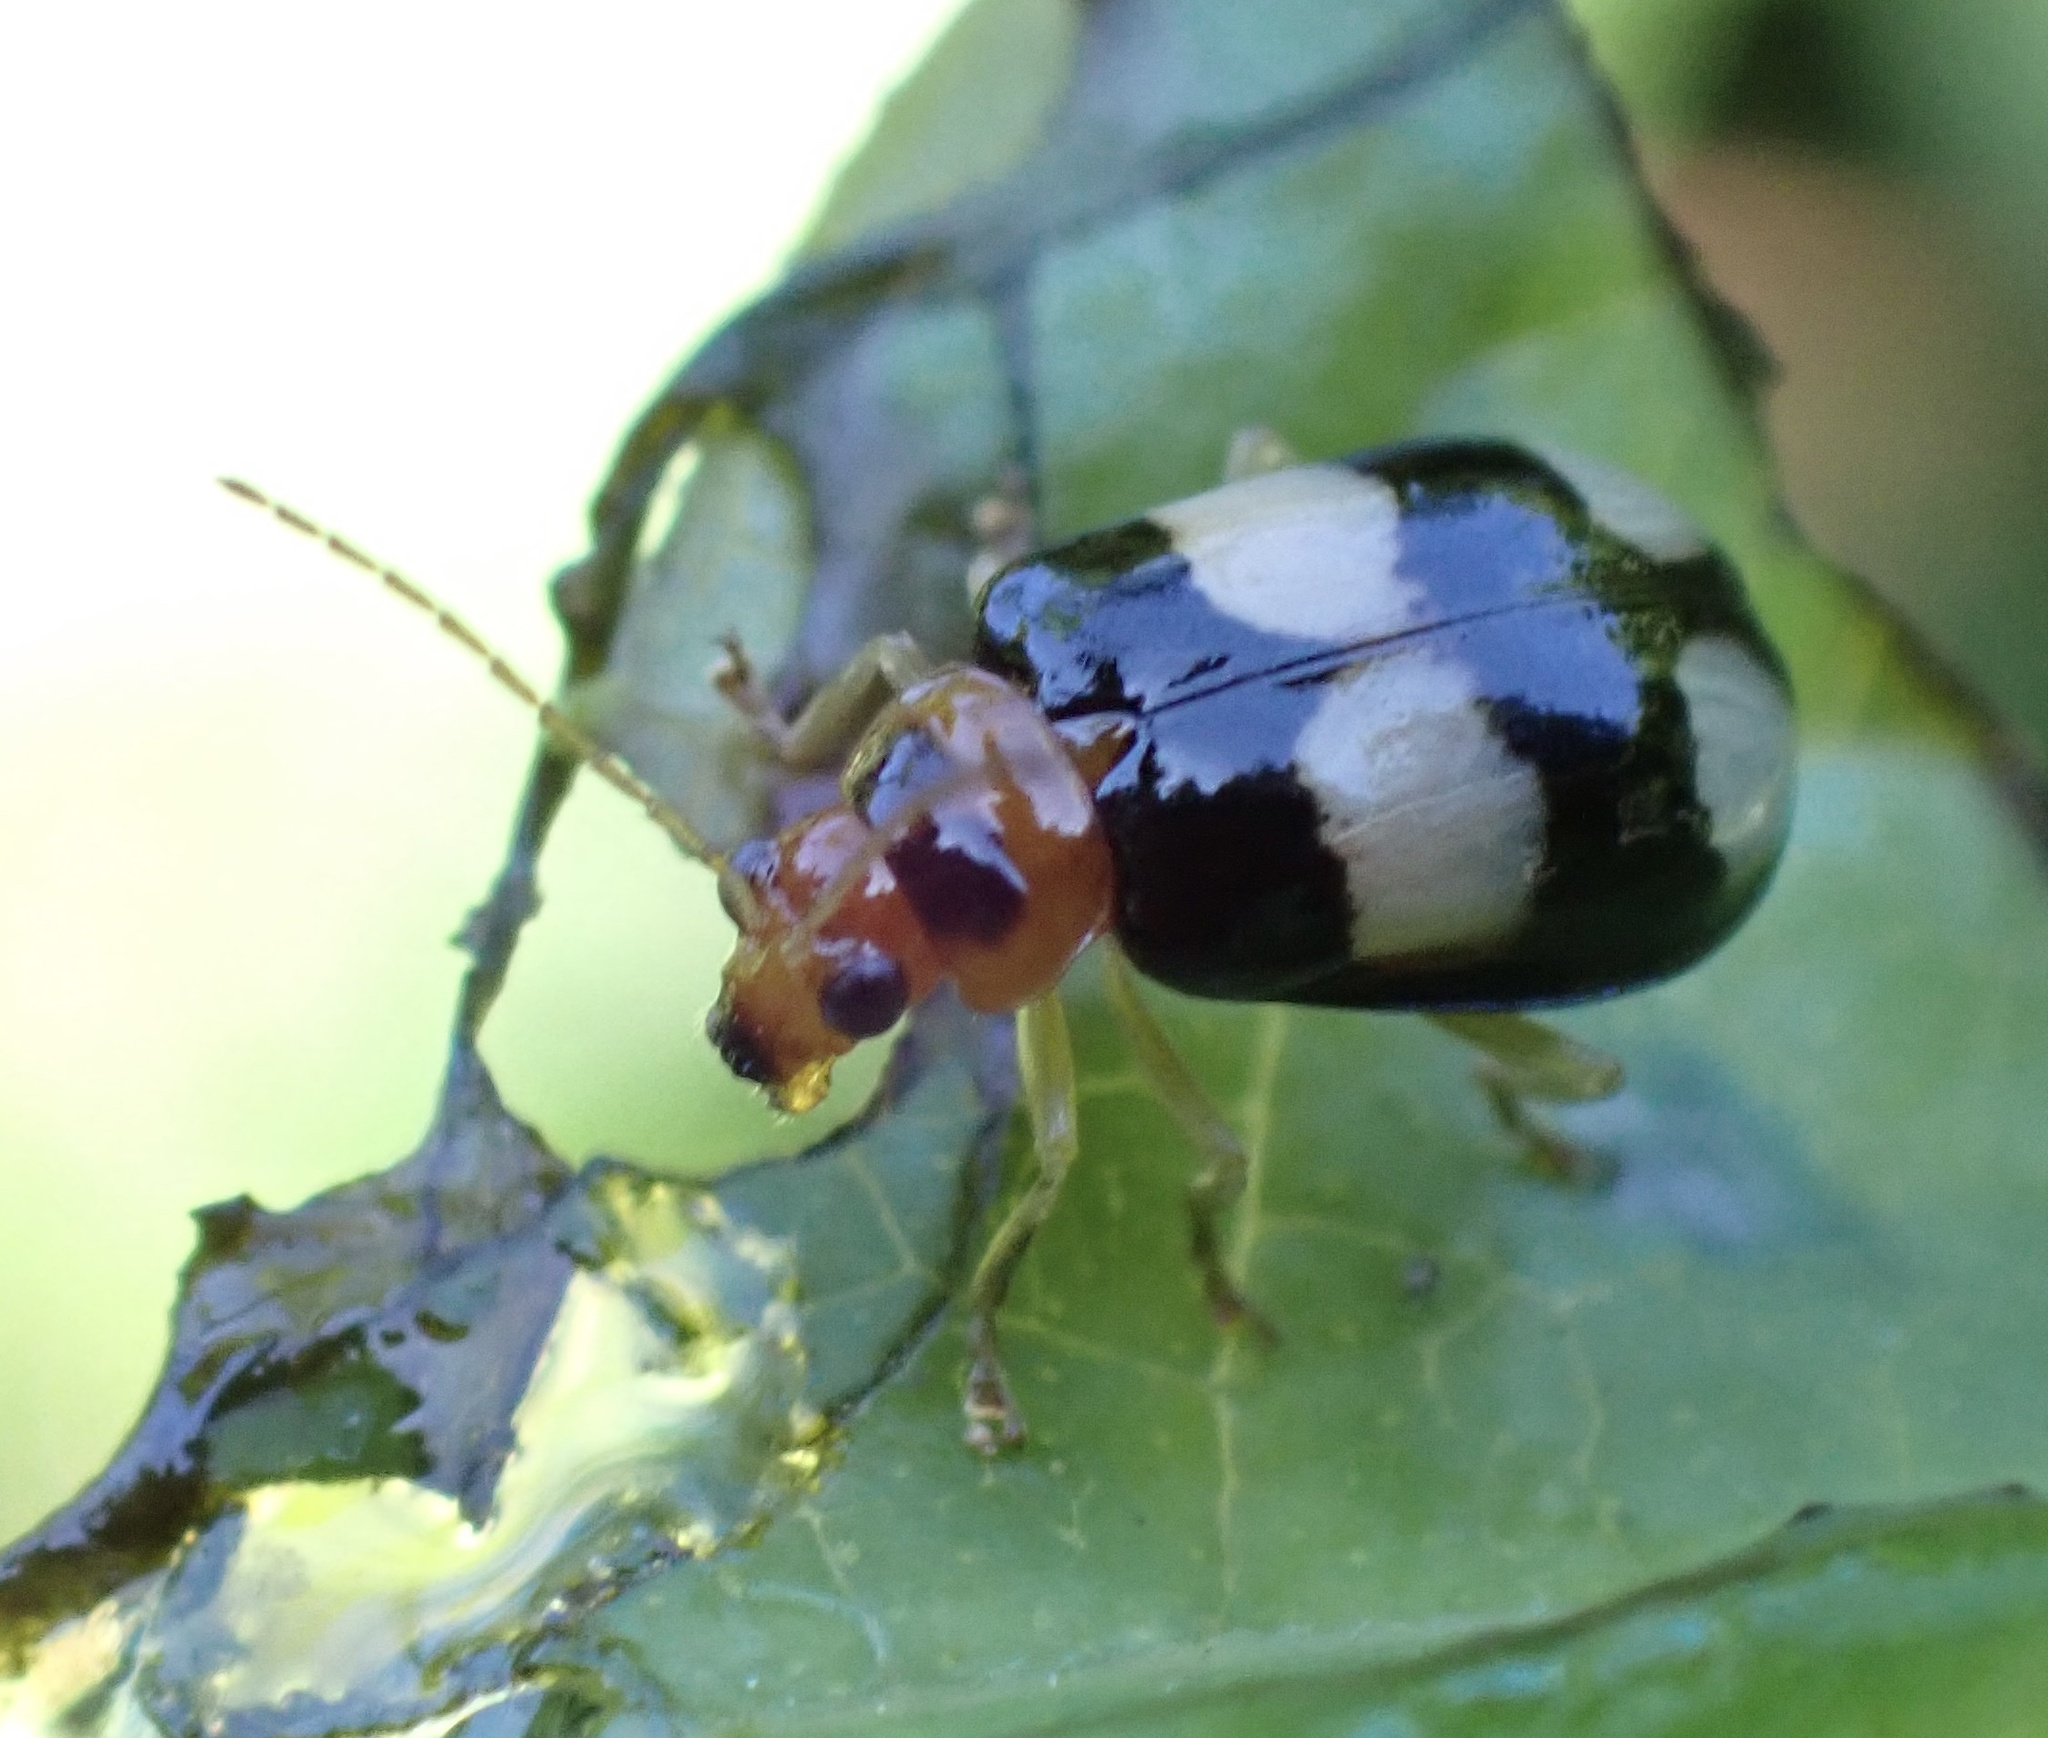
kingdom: Animalia
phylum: Arthropoda
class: Insecta
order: Coleoptera
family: Chrysomelidae
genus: Diacantha
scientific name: Diacantha
